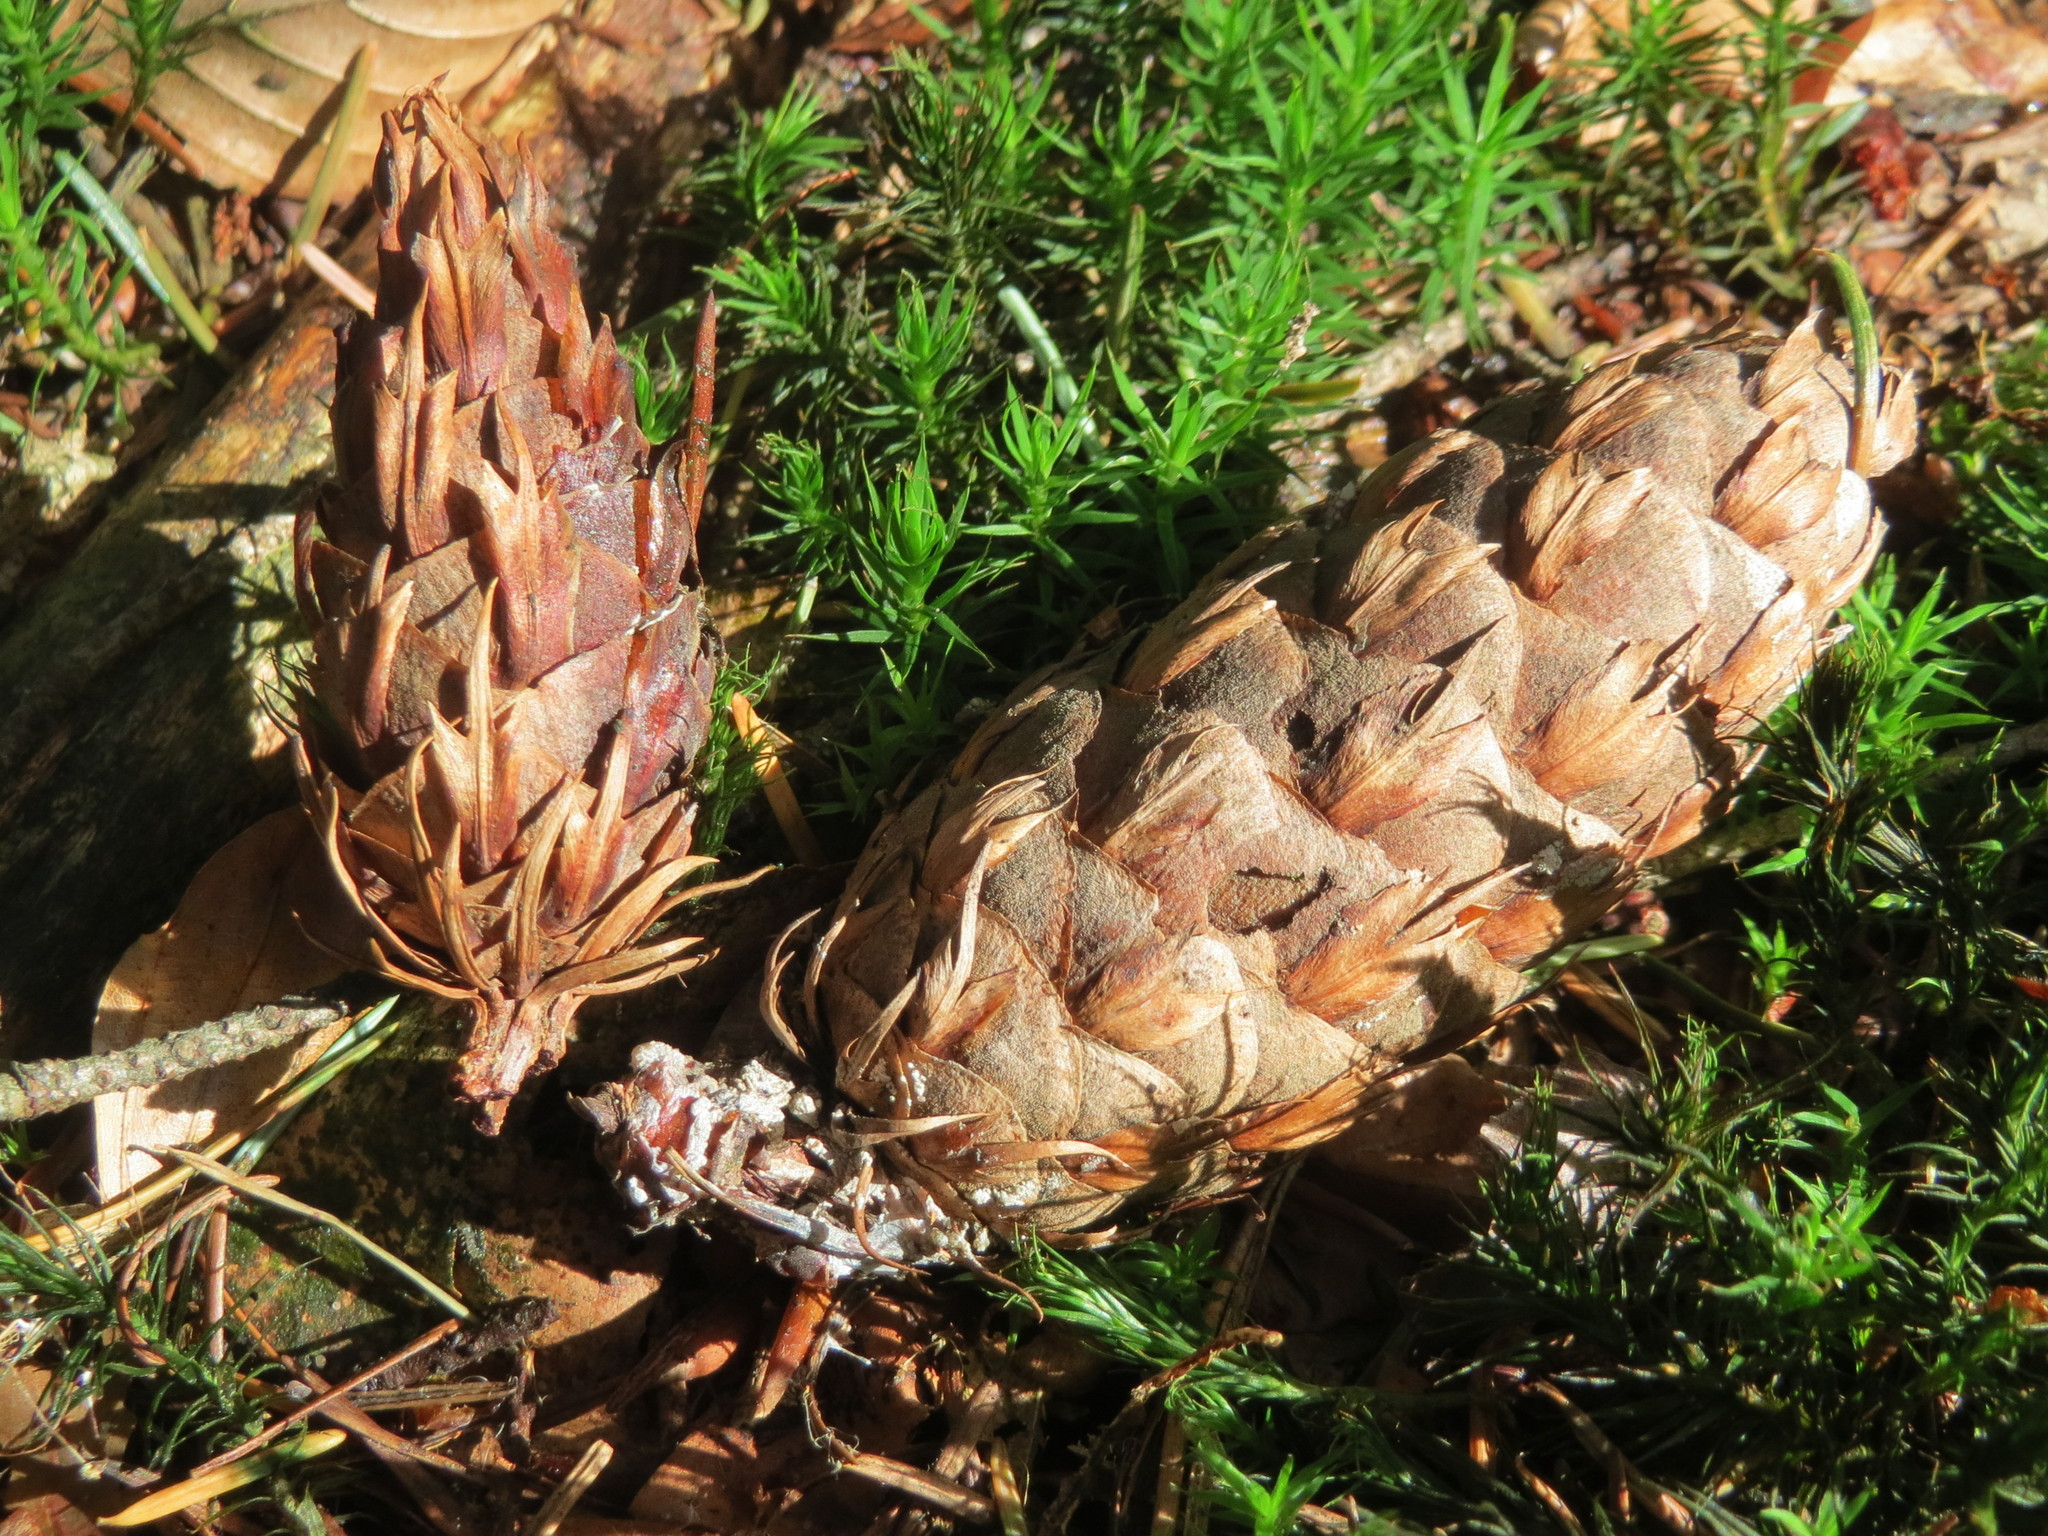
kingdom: Plantae
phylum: Tracheophyta
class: Pinopsida
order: Pinales
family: Pinaceae
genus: Pseudotsuga
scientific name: Pseudotsuga menziesii
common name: Douglas fir
